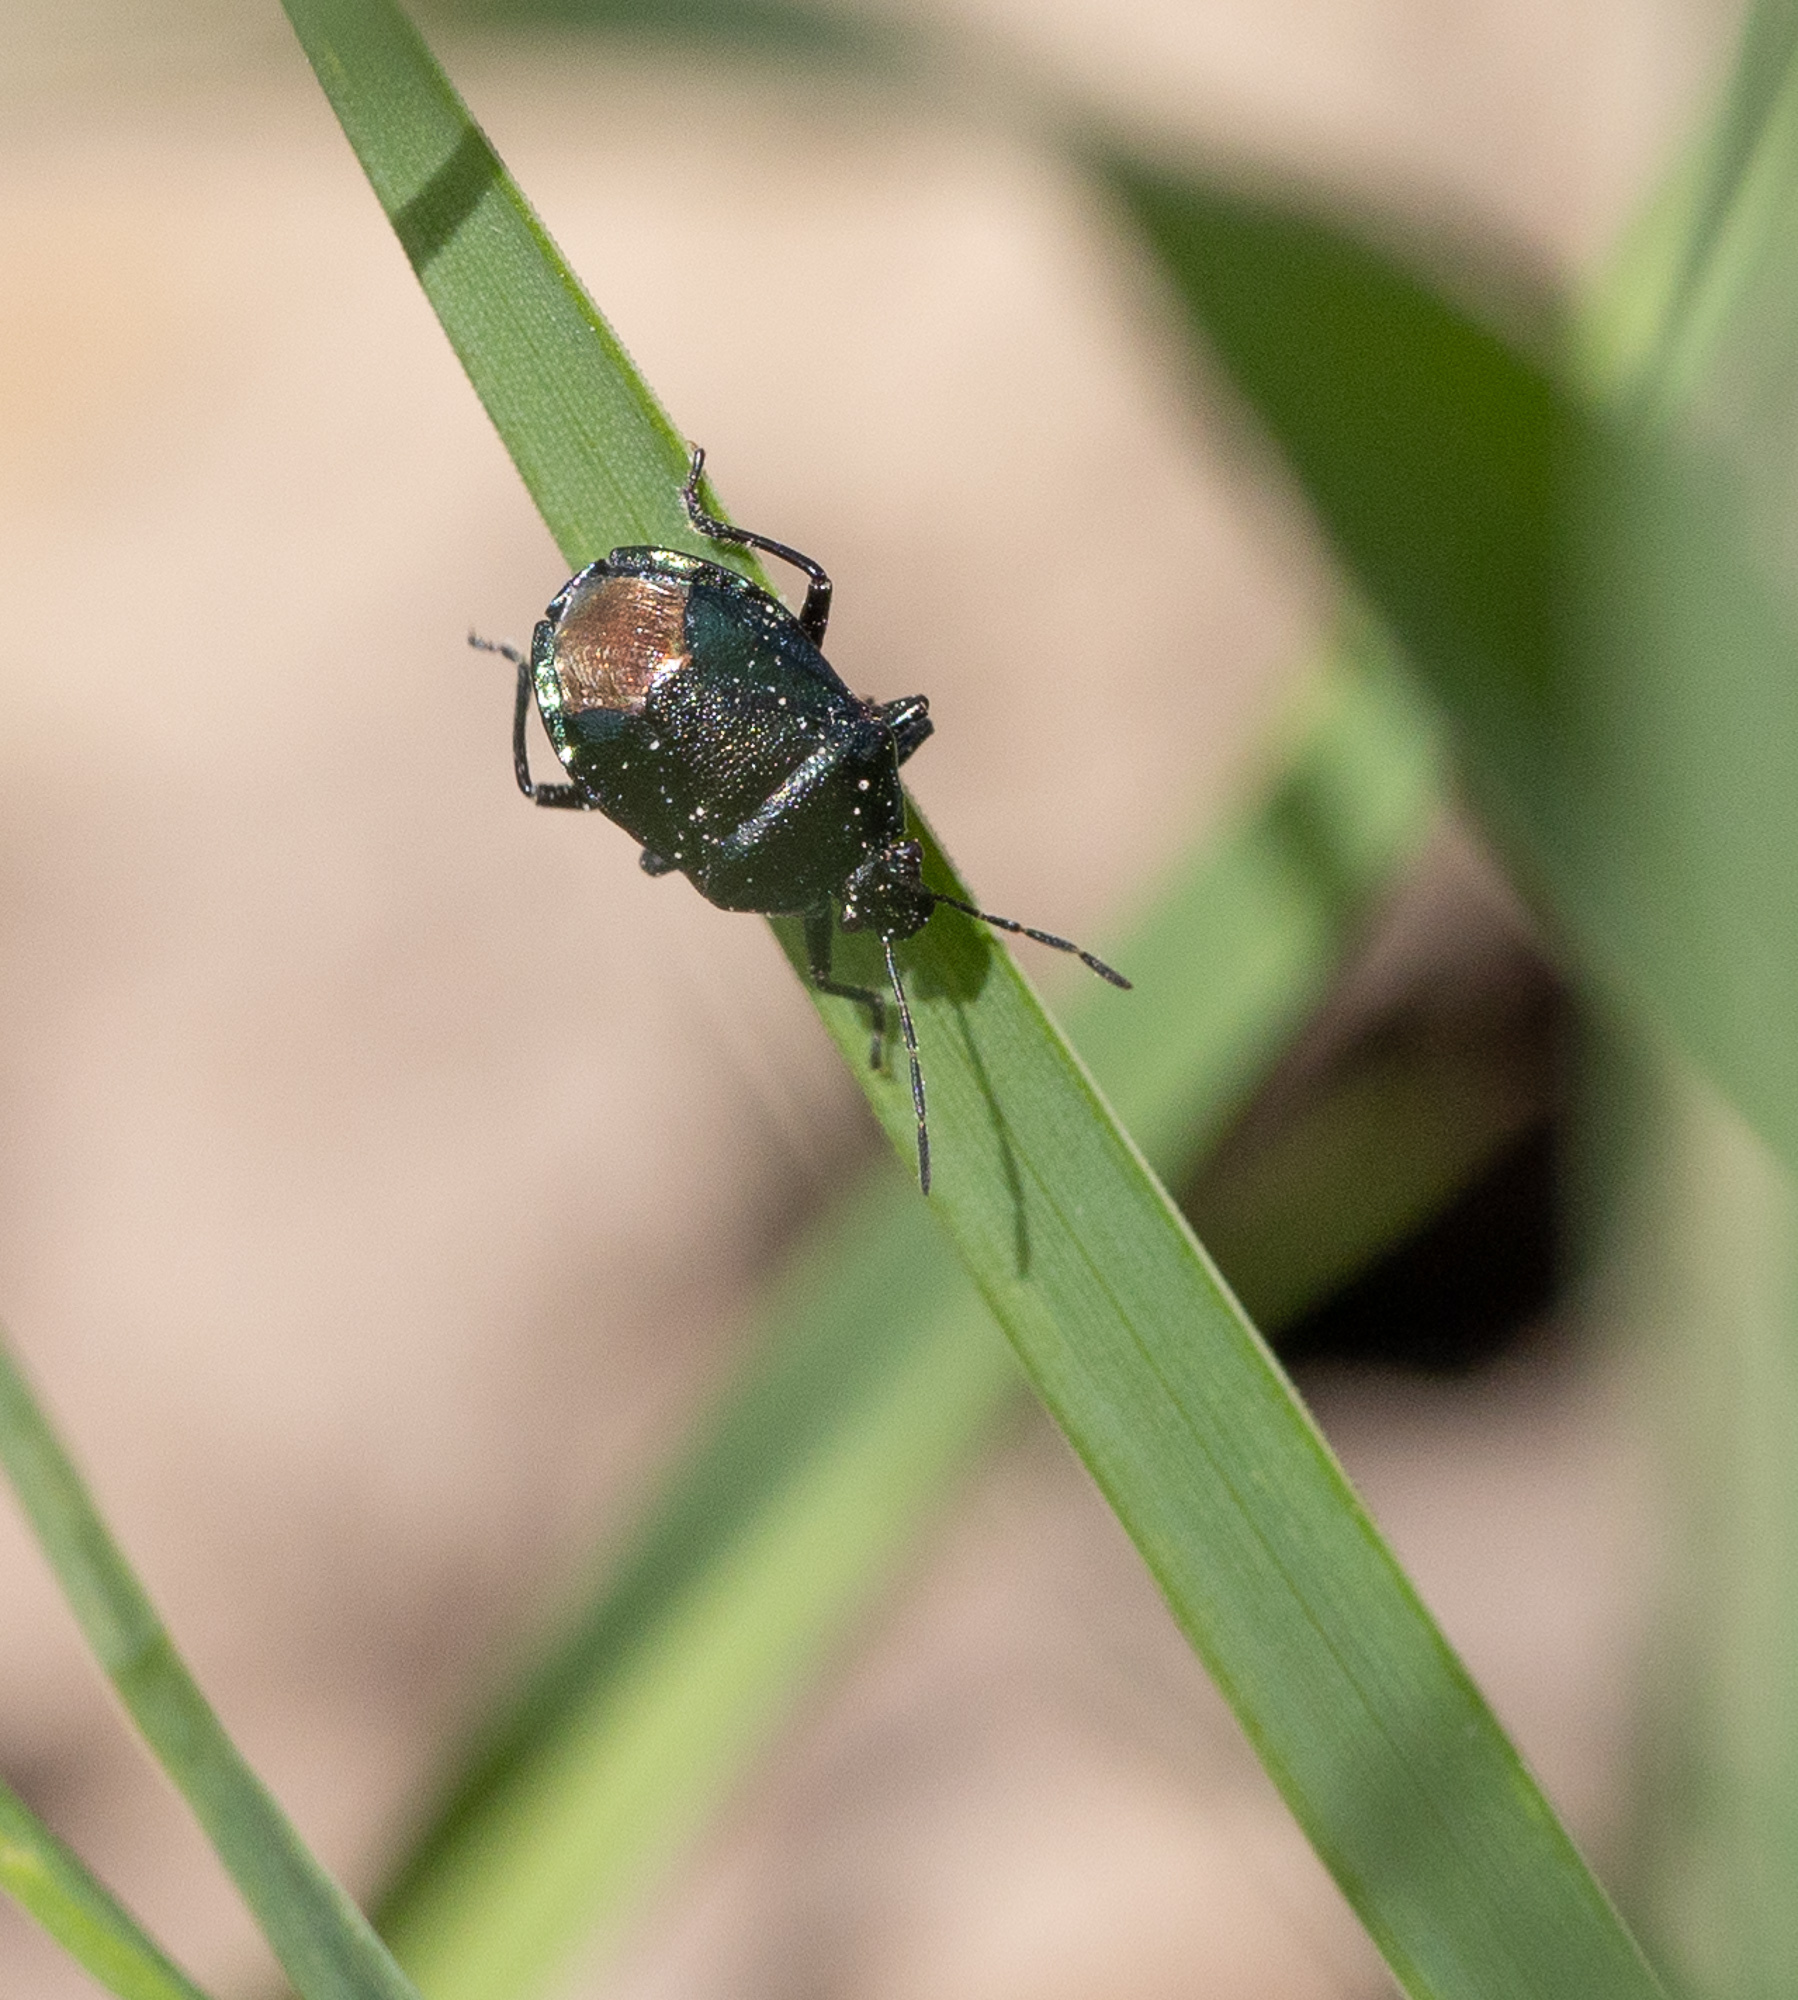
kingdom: Animalia
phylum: Arthropoda
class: Insecta
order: Hemiptera
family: Pentatomidae
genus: Zicrona
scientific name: Zicrona caerulea
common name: Blue shieldbug
